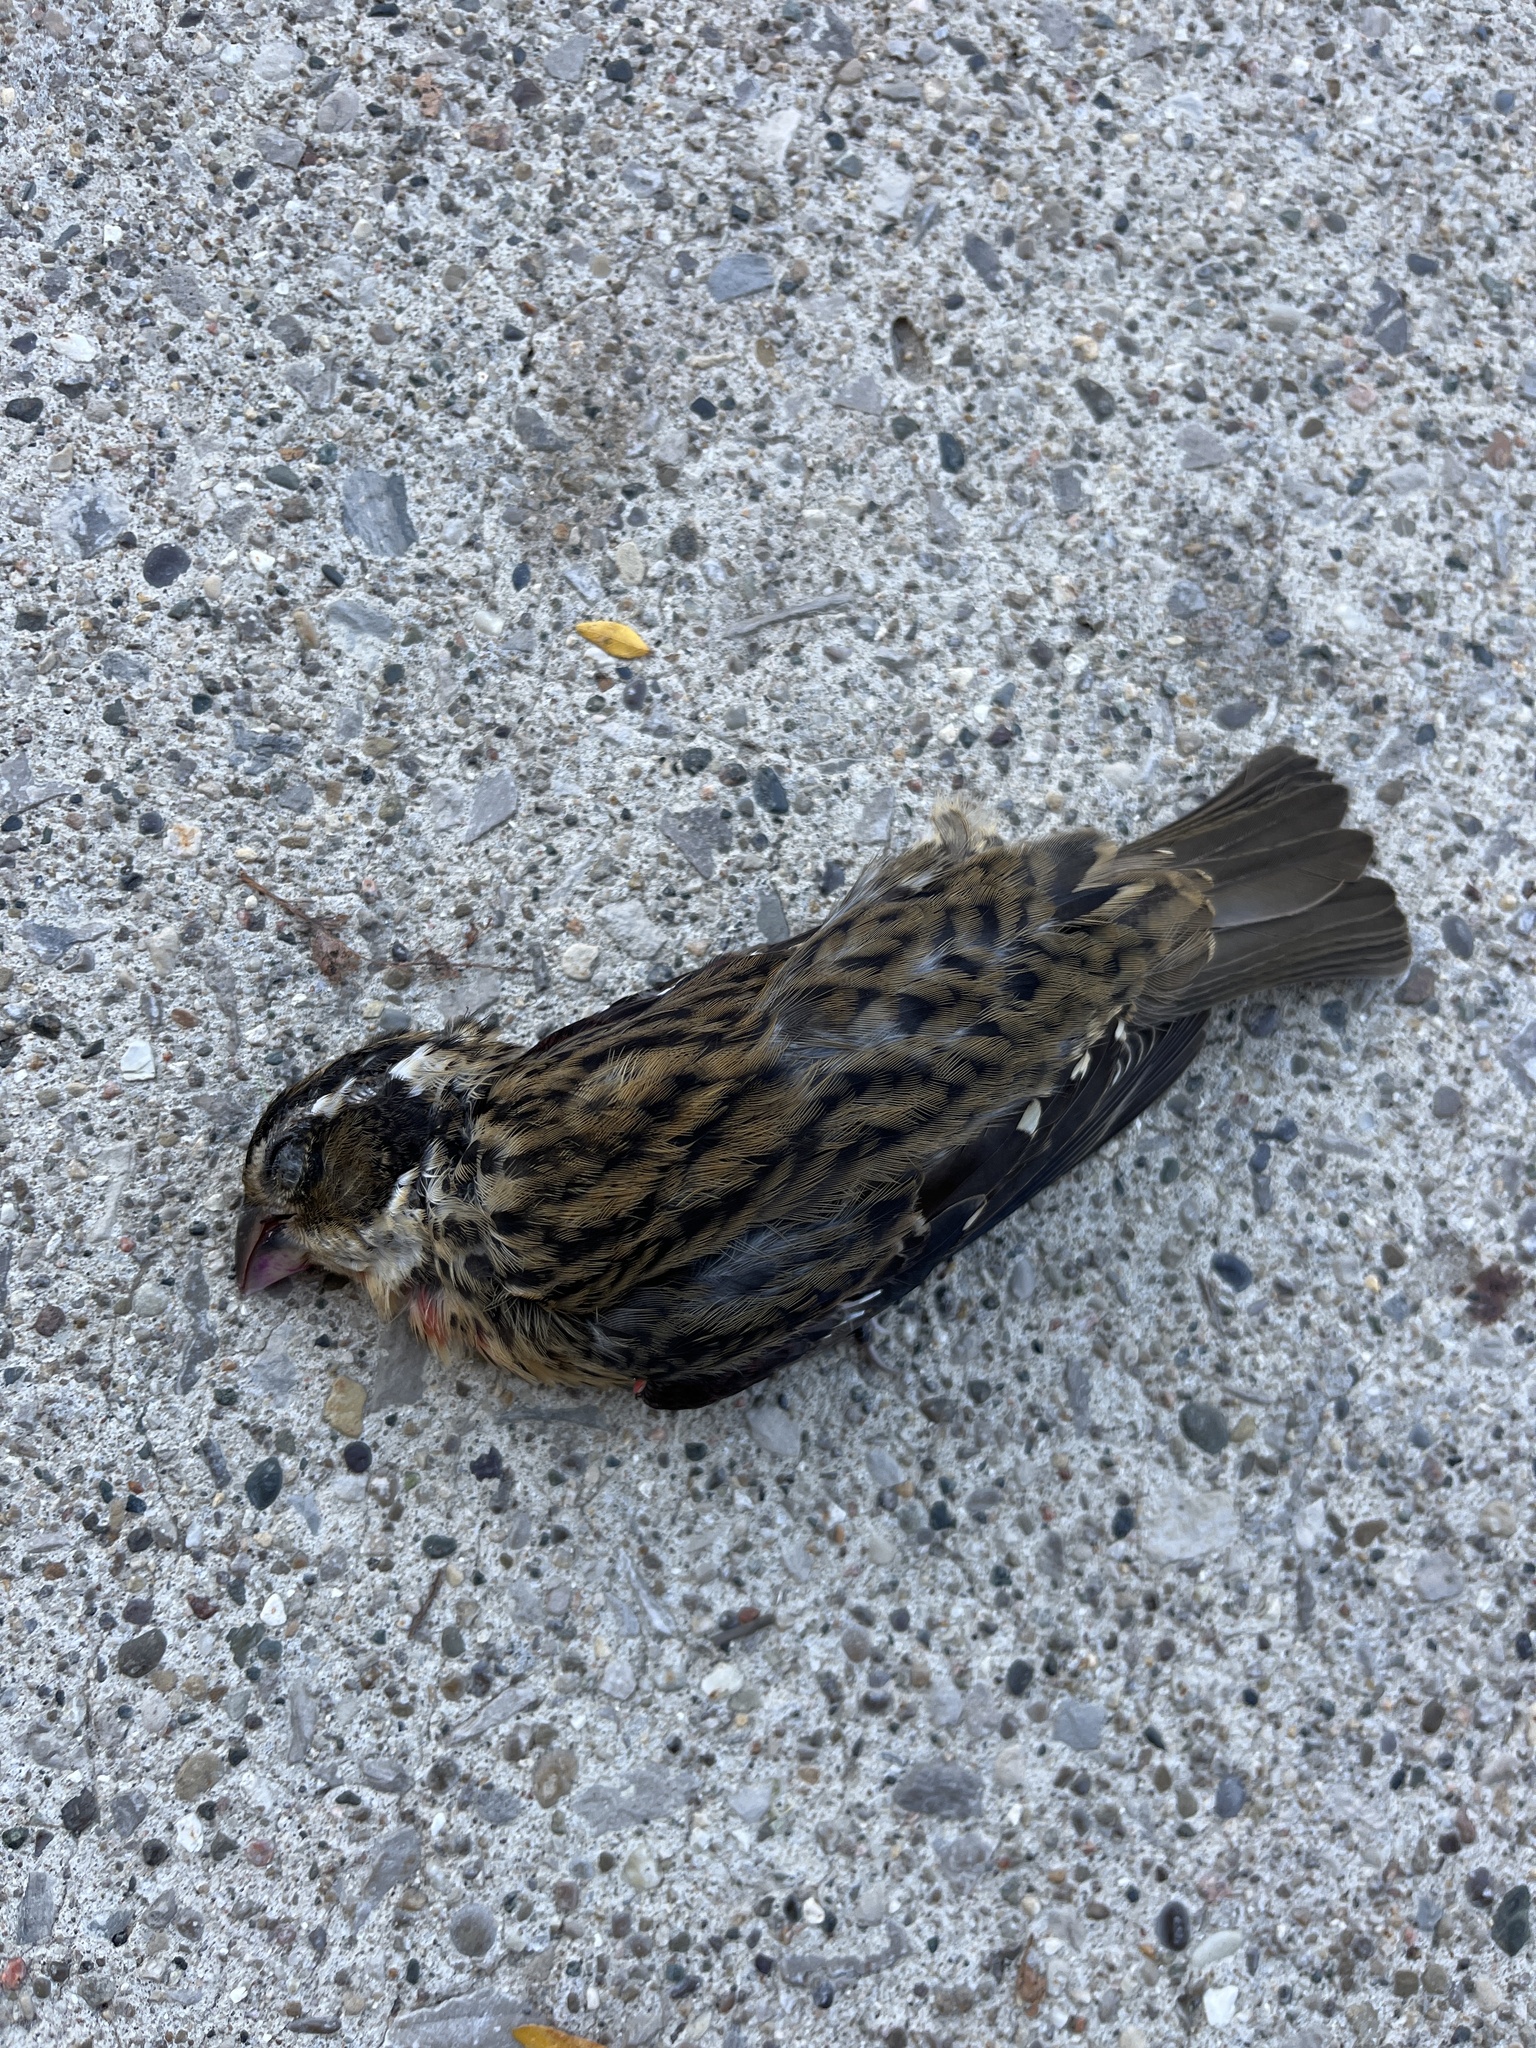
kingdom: Animalia
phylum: Chordata
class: Aves
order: Passeriformes
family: Cardinalidae
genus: Pheucticus
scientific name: Pheucticus ludovicianus
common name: Rose-breasted grosbeak
